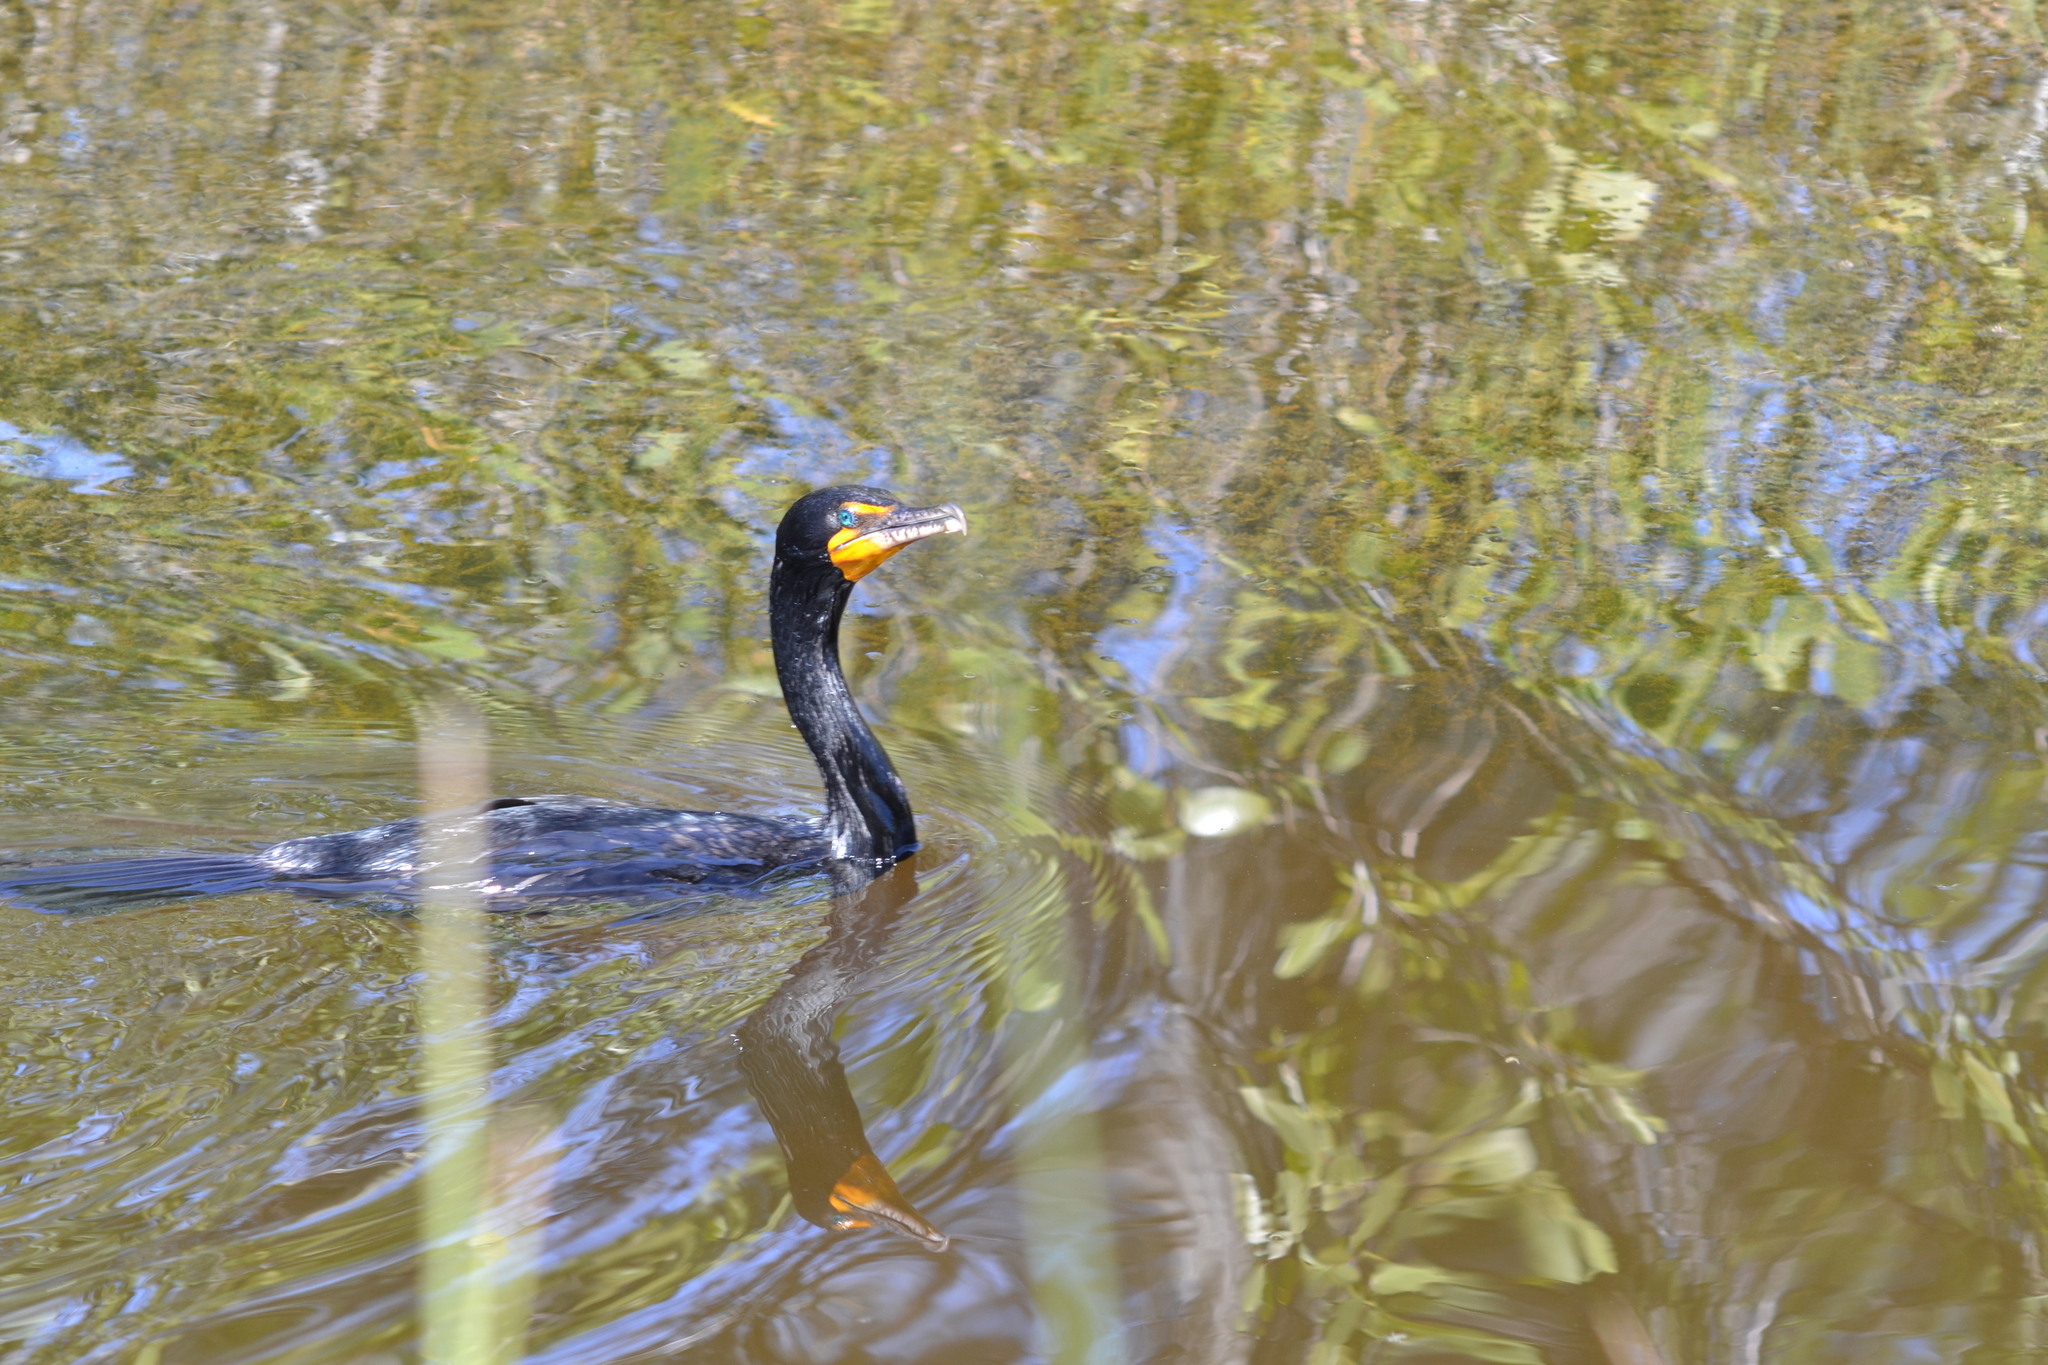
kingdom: Animalia
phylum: Chordata
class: Aves
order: Suliformes
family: Phalacrocoracidae
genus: Phalacrocorax
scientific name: Phalacrocorax auritus
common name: Double-crested cormorant
